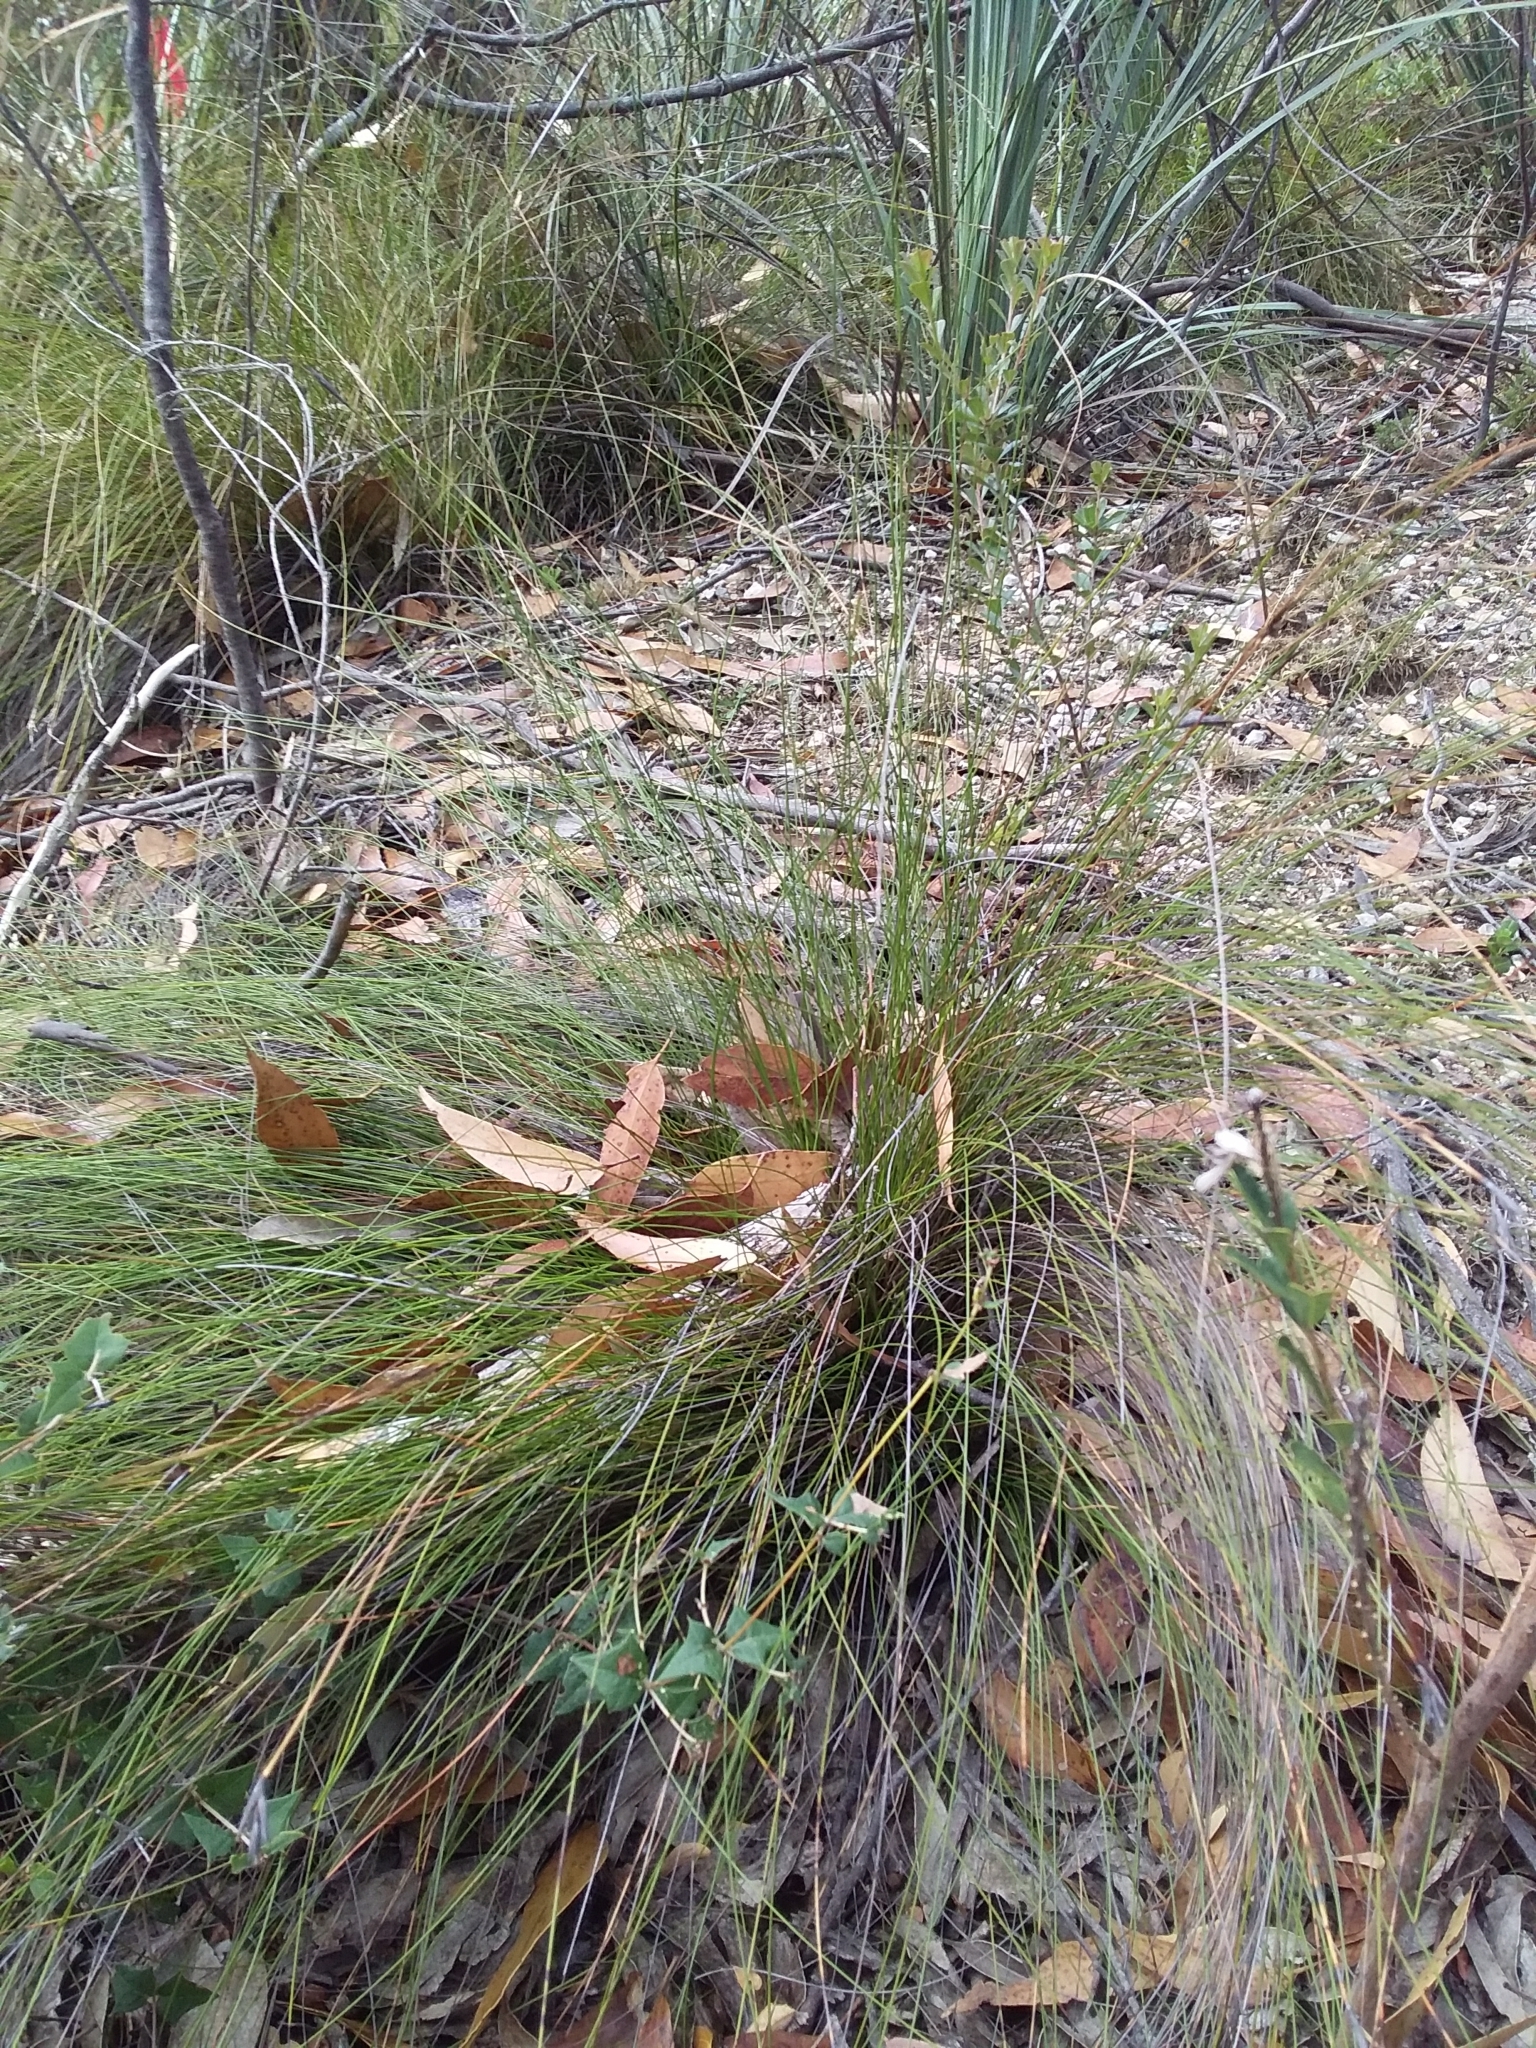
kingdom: Plantae
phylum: Tracheophyta
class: Liliopsida
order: Poales
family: Cyperaceae
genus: Lepidosperma
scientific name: Lepidosperma carphoides
